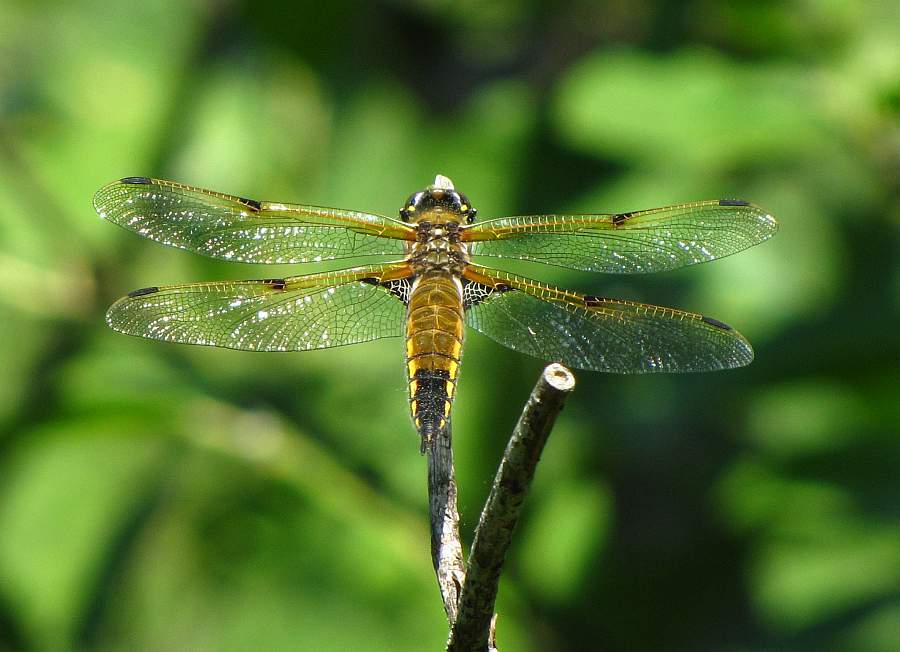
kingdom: Animalia
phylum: Arthropoda
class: Insecta
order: Odonata
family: Libellulidae
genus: Libellula
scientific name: Libellula quadrimaculata
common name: Four-spotted chaser
